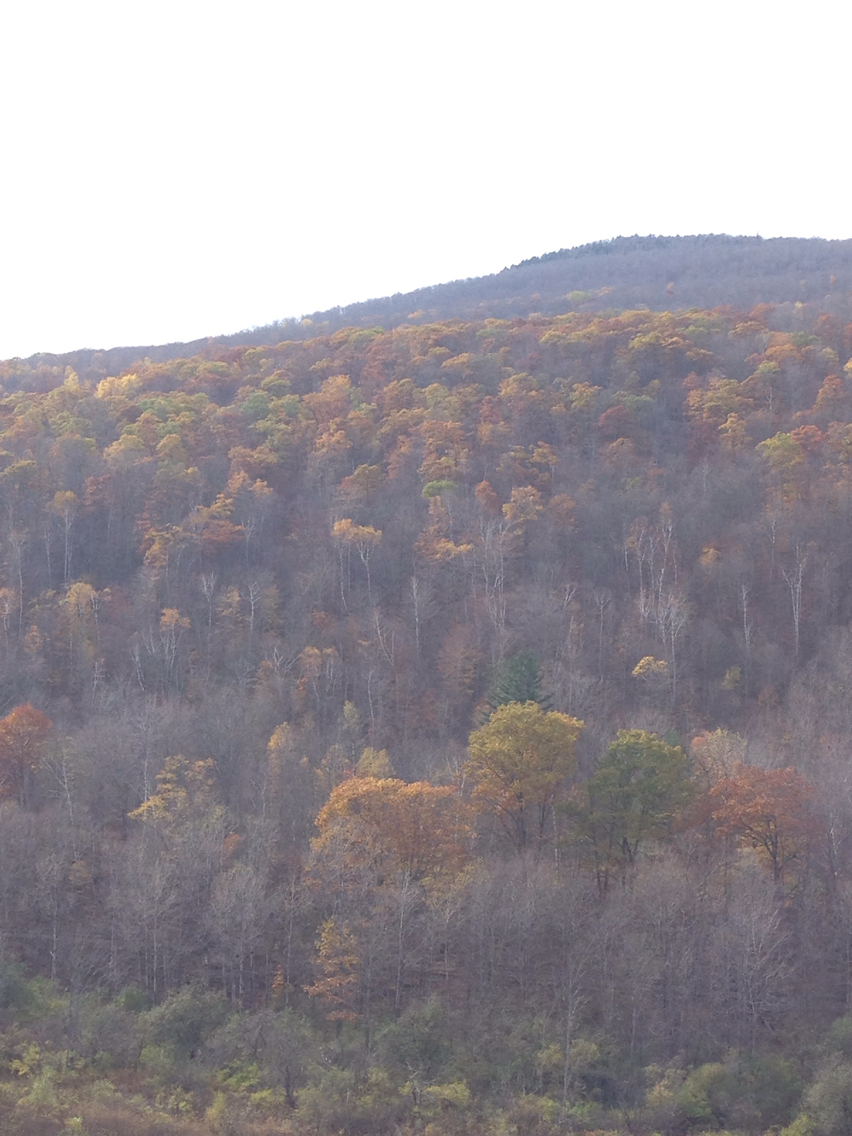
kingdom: Plantae
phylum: Tracheophyta
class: Magnoliopsida
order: Fagales
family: Fagaceae
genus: Quercus
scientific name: Quercus rubra
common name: Red oak
